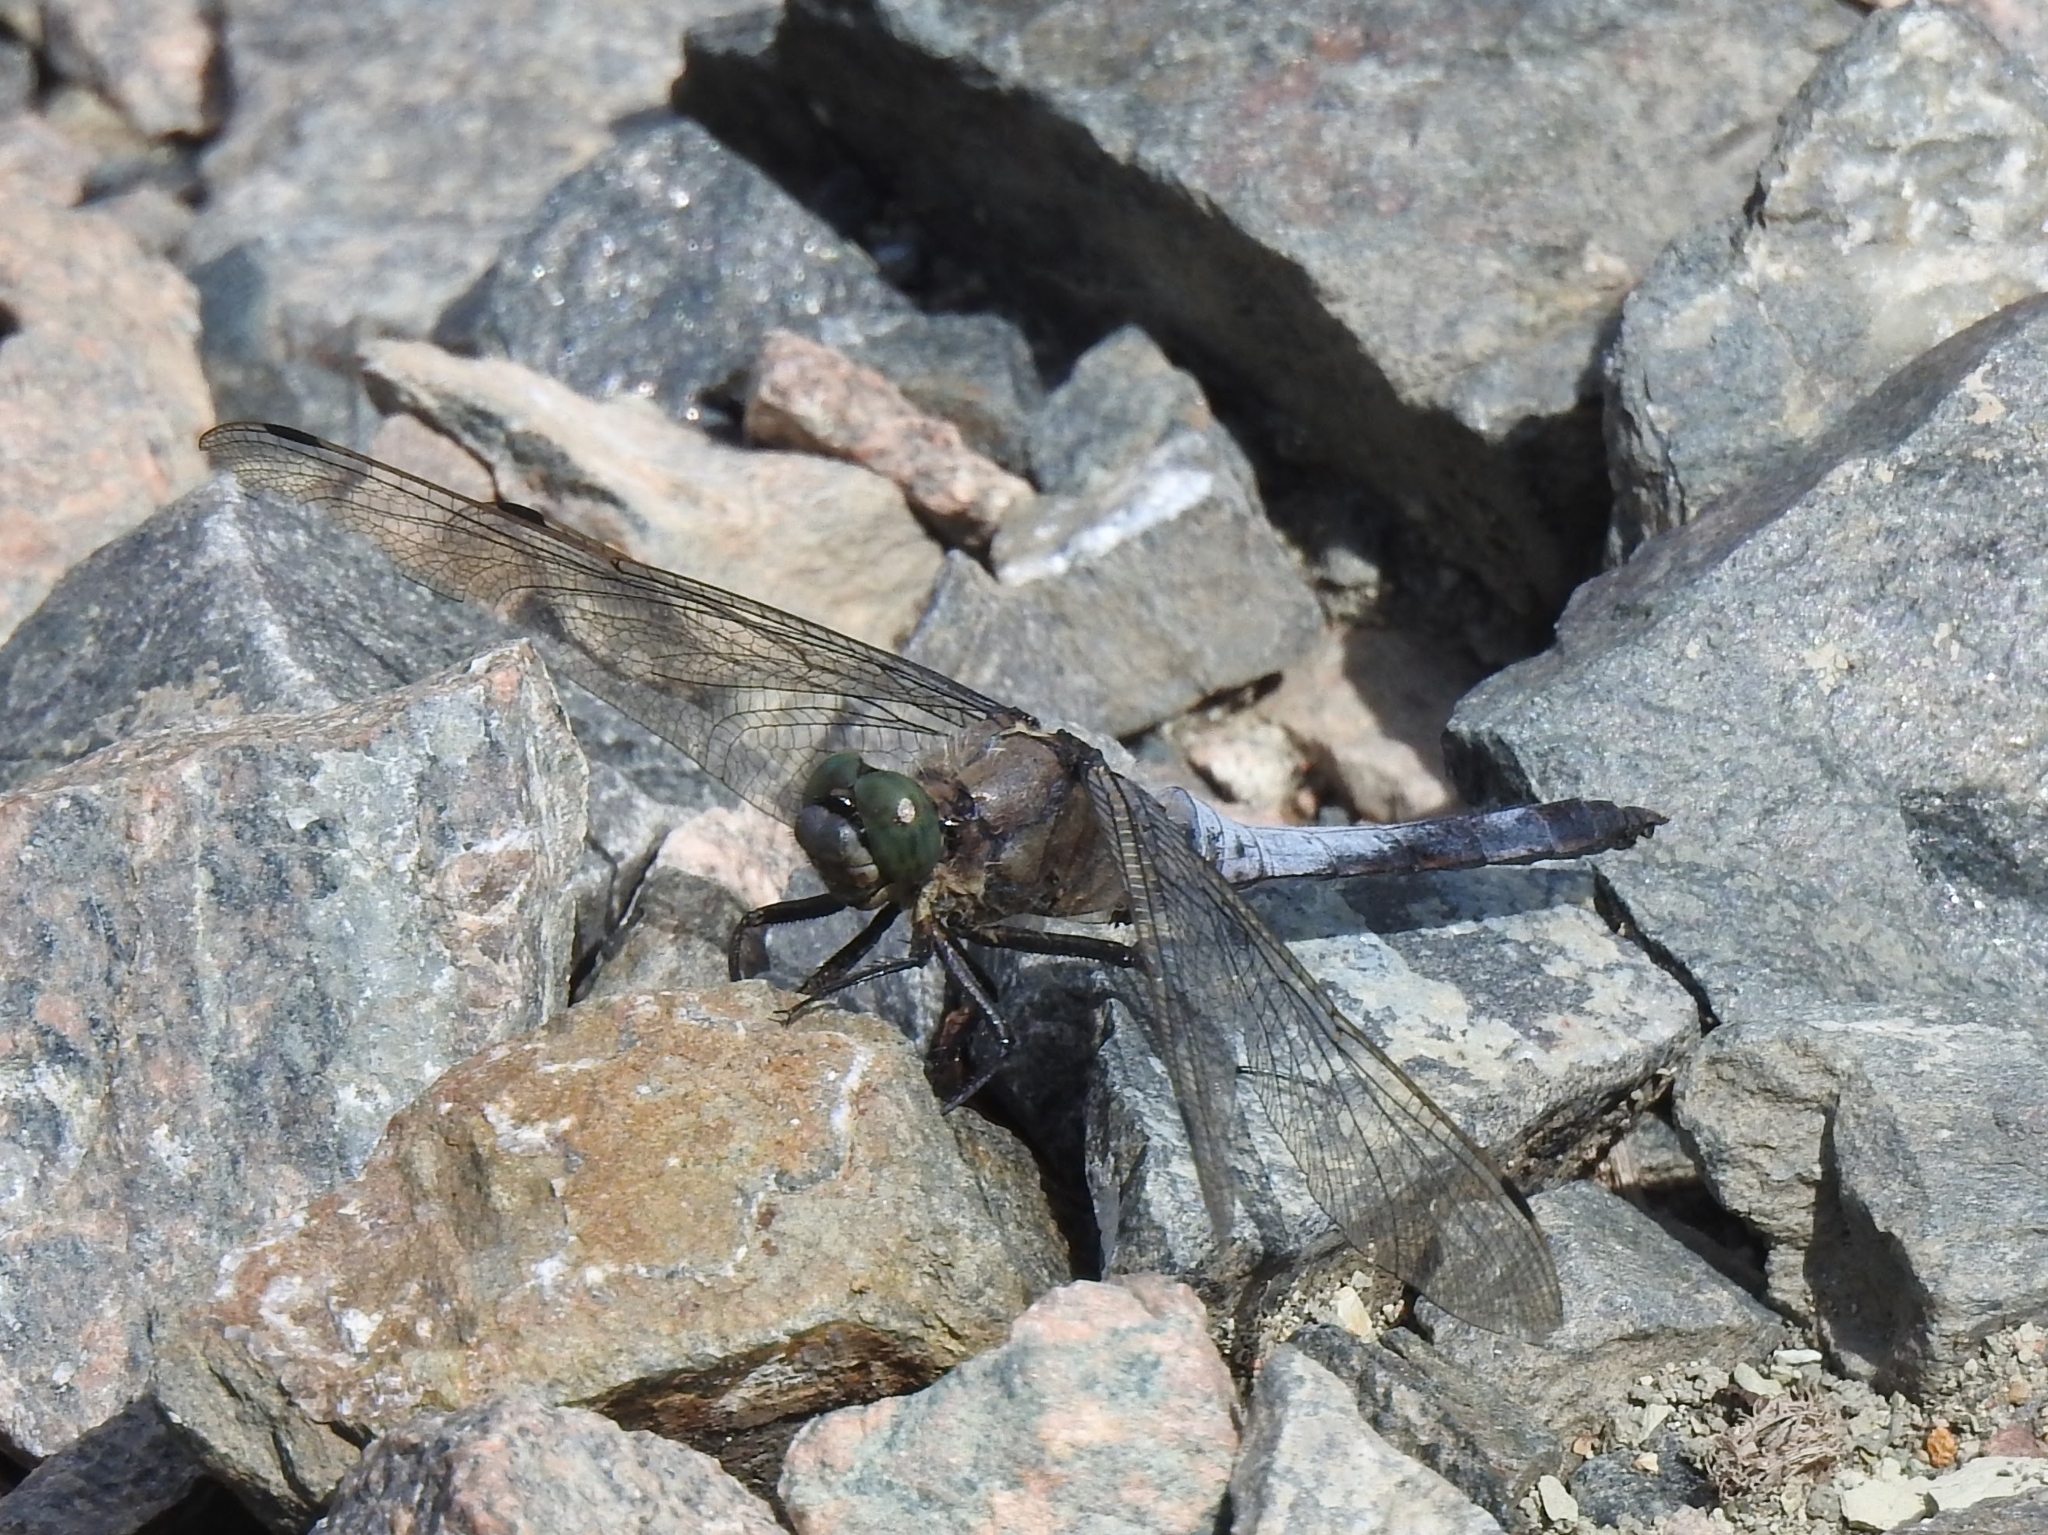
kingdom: Animalia
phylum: Arthropoda
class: Insecta
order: Odonata
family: Libellulidae
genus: Orthetrum
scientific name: Orthetrum cancellatum
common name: Black-tailed skimmer
